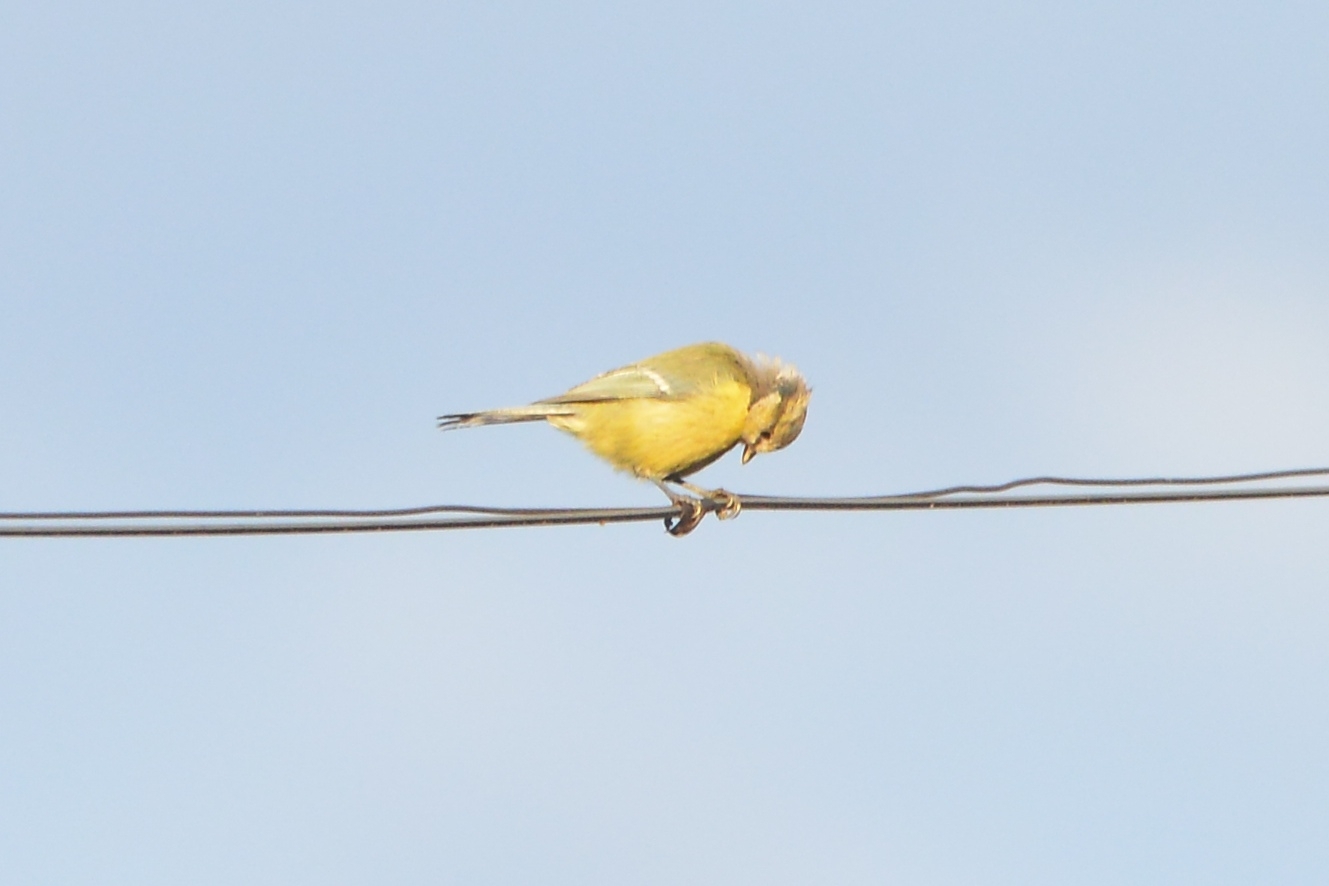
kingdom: Animalia
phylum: Chordata
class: Aves
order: Passeriformes
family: Paridae
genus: Cyanistes
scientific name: Cyanistes caeruleus
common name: Eurasian blue tit
